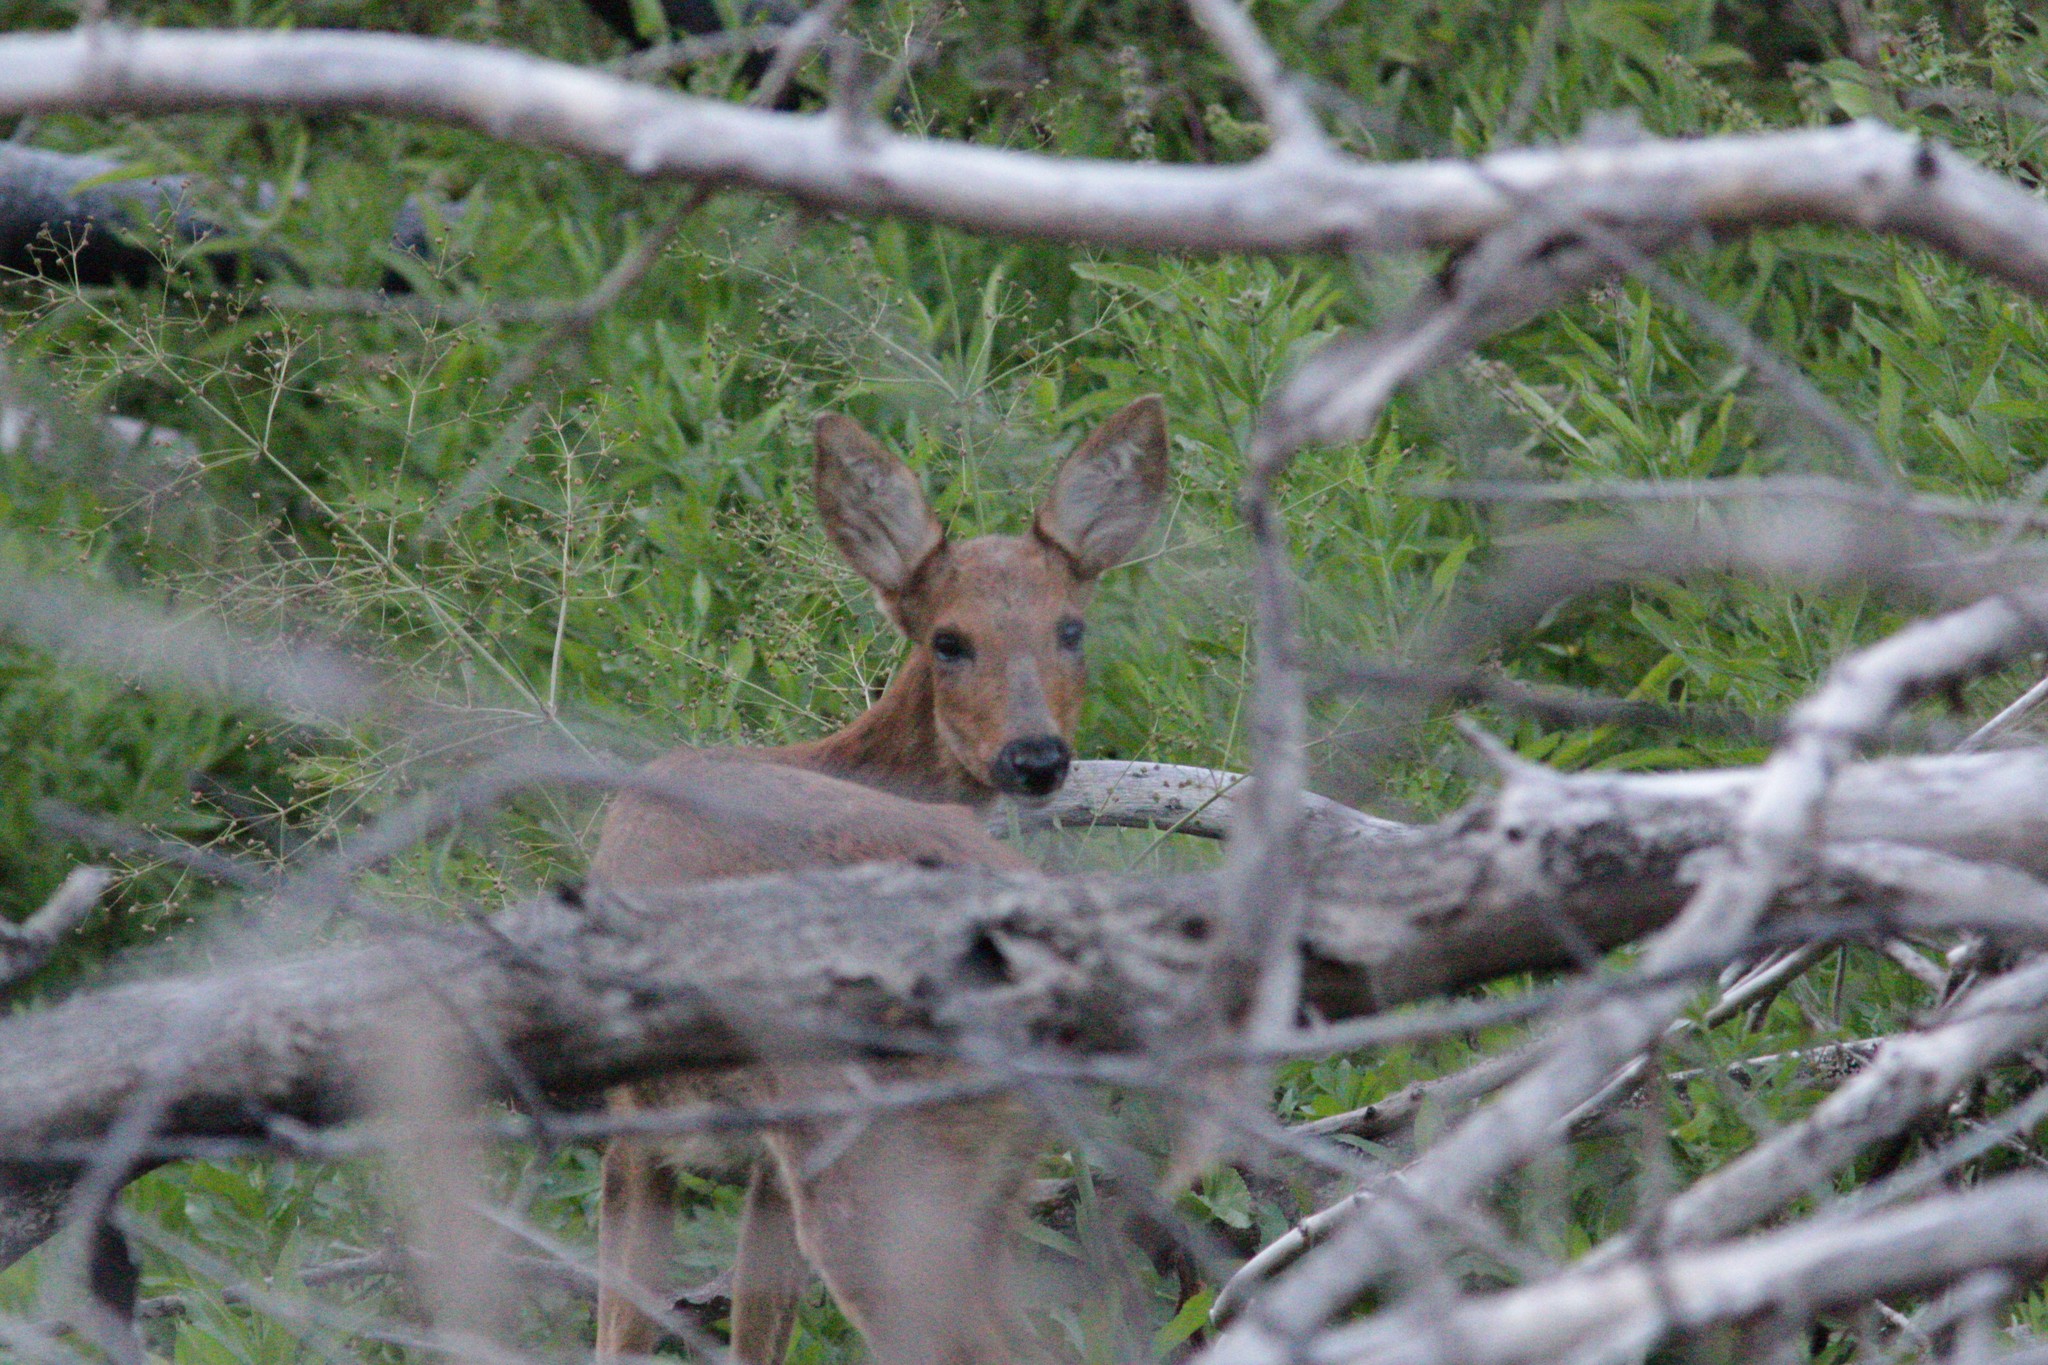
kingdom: Animalia
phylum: Chordata
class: Mammalia
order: Artiodactyla
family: Cervidae
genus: Capreolus
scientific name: Capreolus pygargus
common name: Siberian roe
